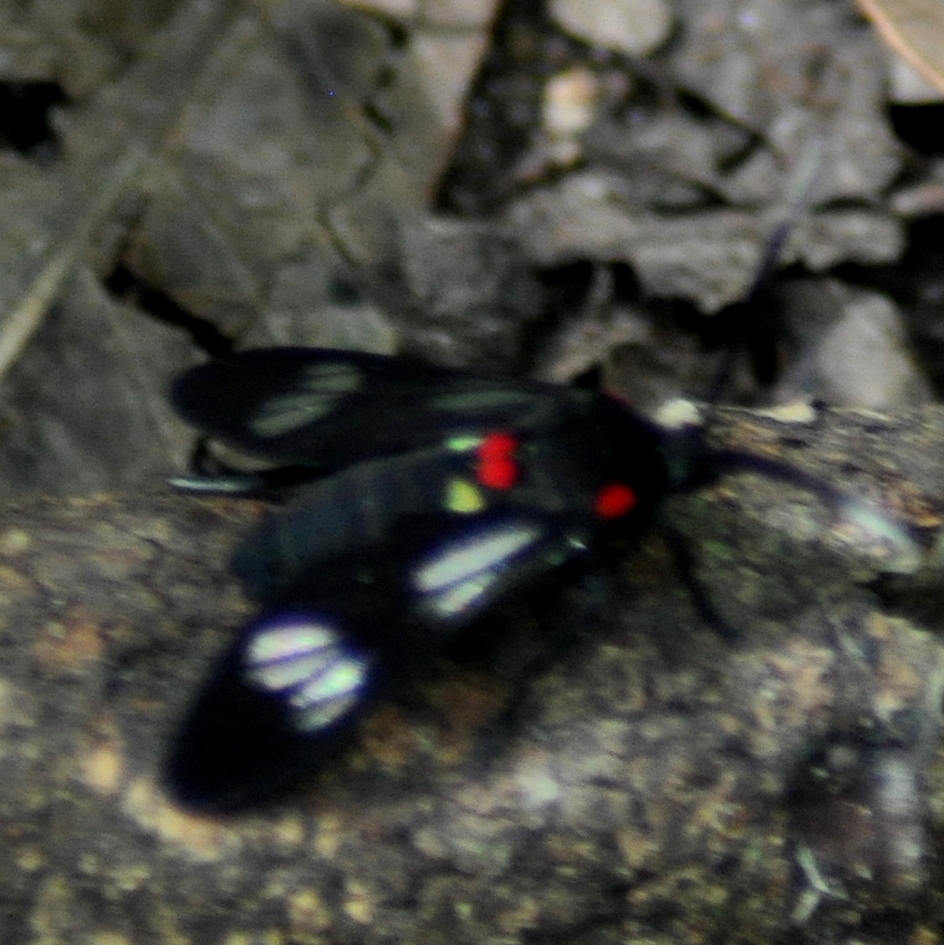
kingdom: Animalia
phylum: Arthropoda
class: Insecta
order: Lepidoptera
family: Erebidae
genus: Phoeniostacta
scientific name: Phoeniostacta haematobasis
